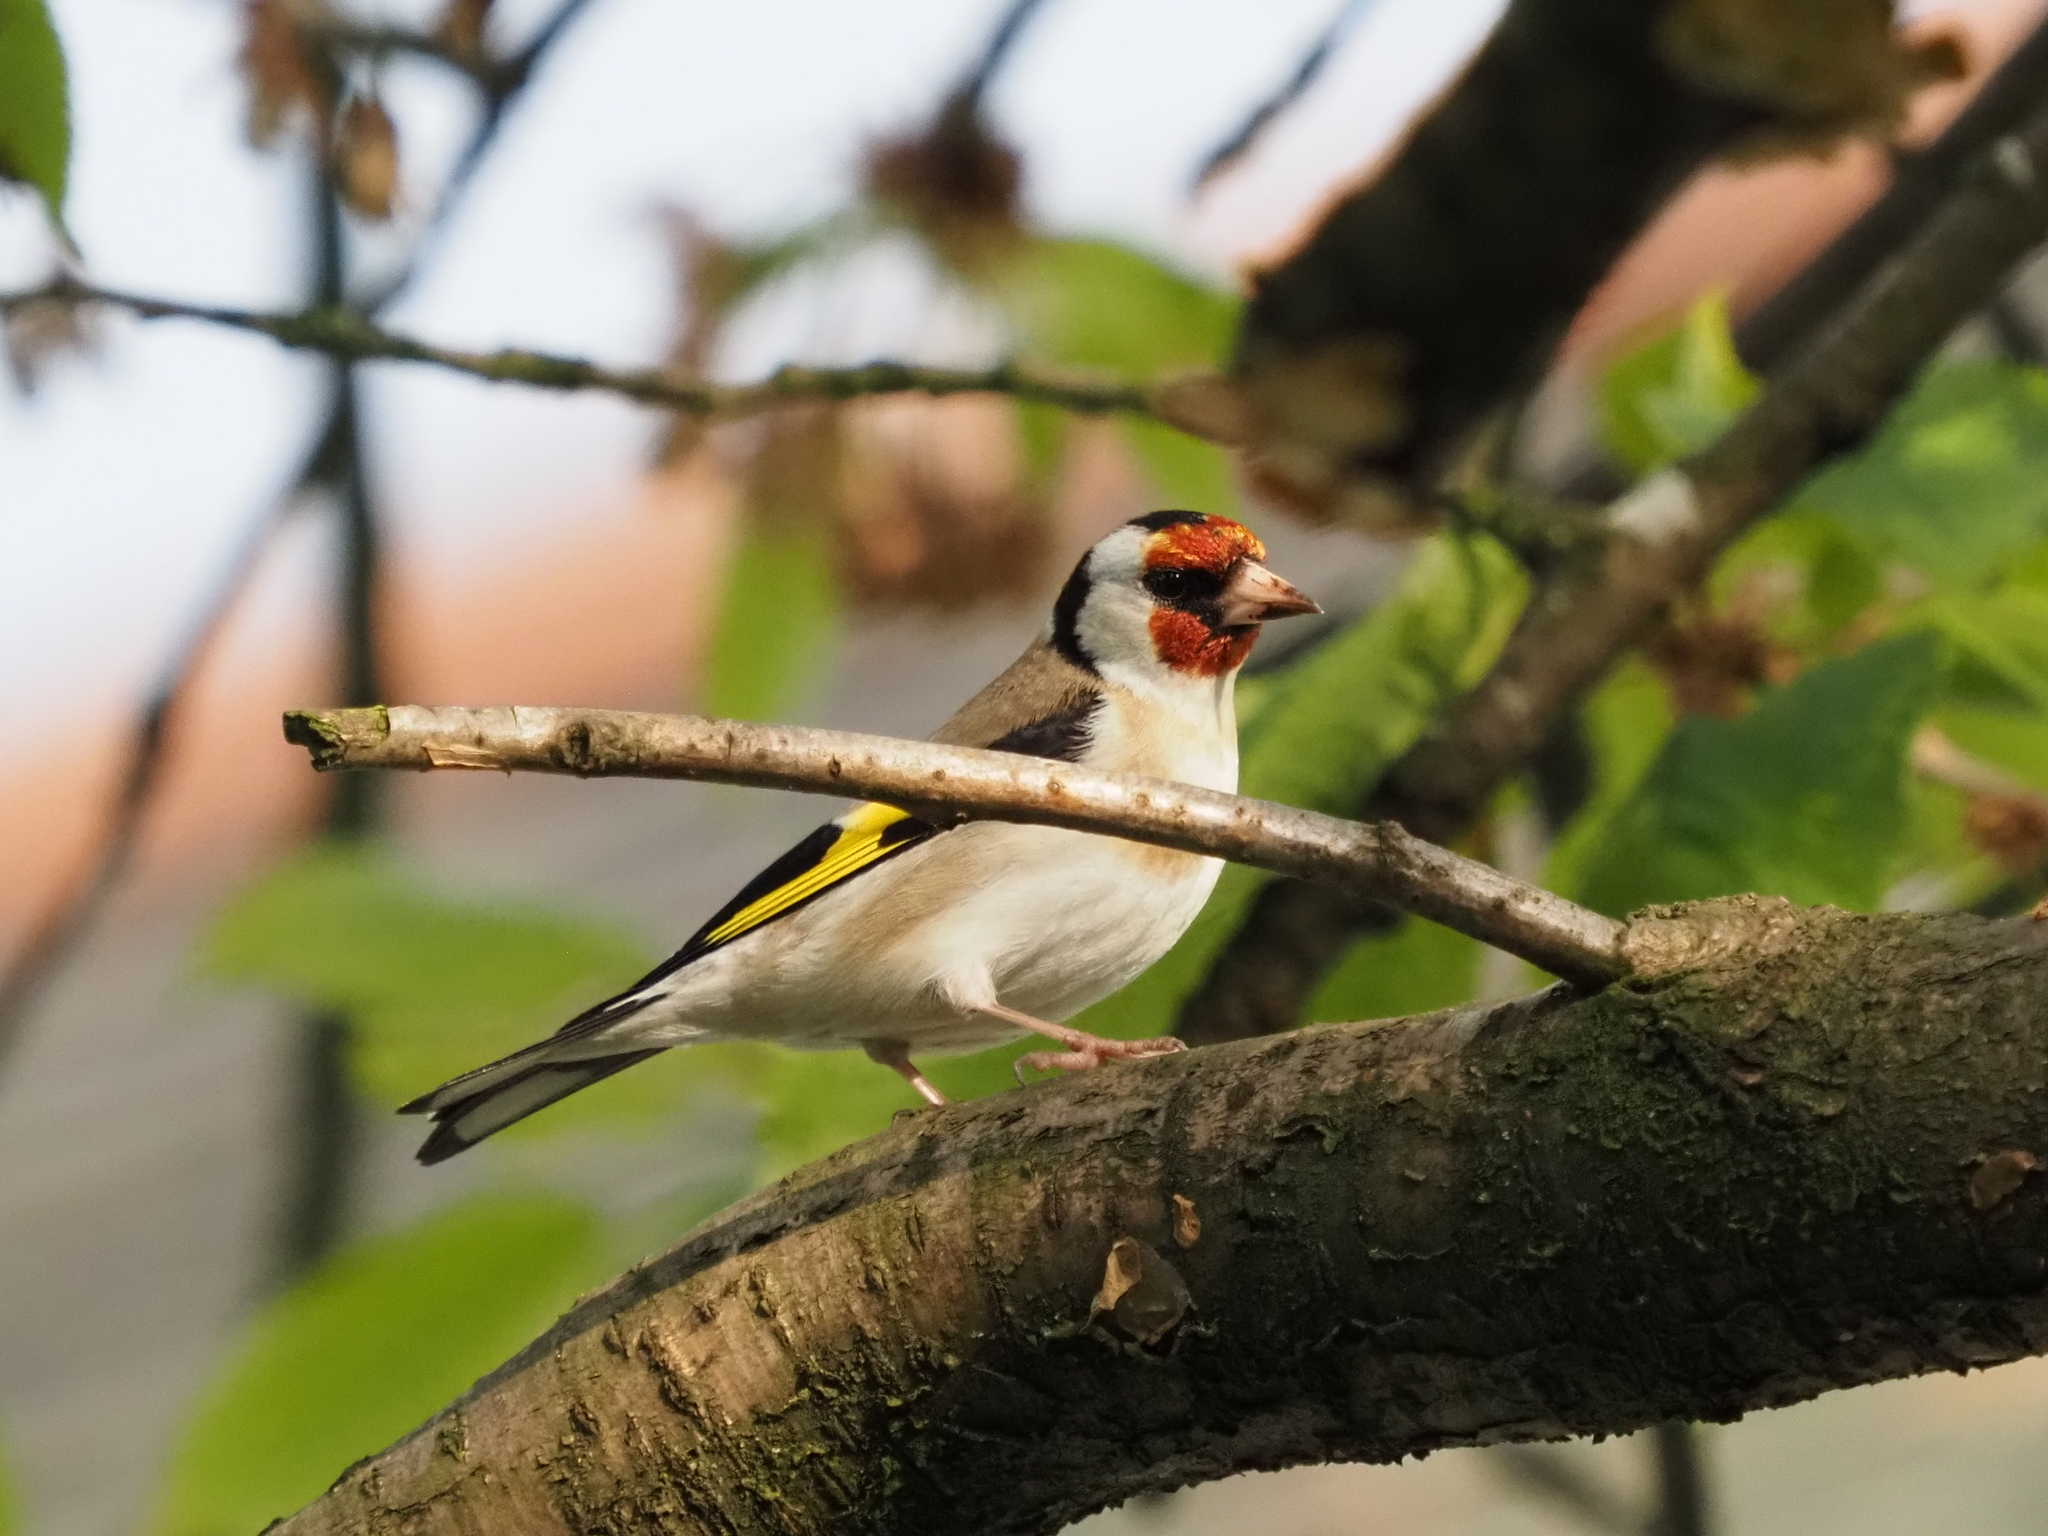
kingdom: Animalia
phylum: Chordata
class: Aves
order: Passeriformes
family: Fringillidae
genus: Carduelis
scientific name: Carduelis carduelis
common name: European goldfinch
